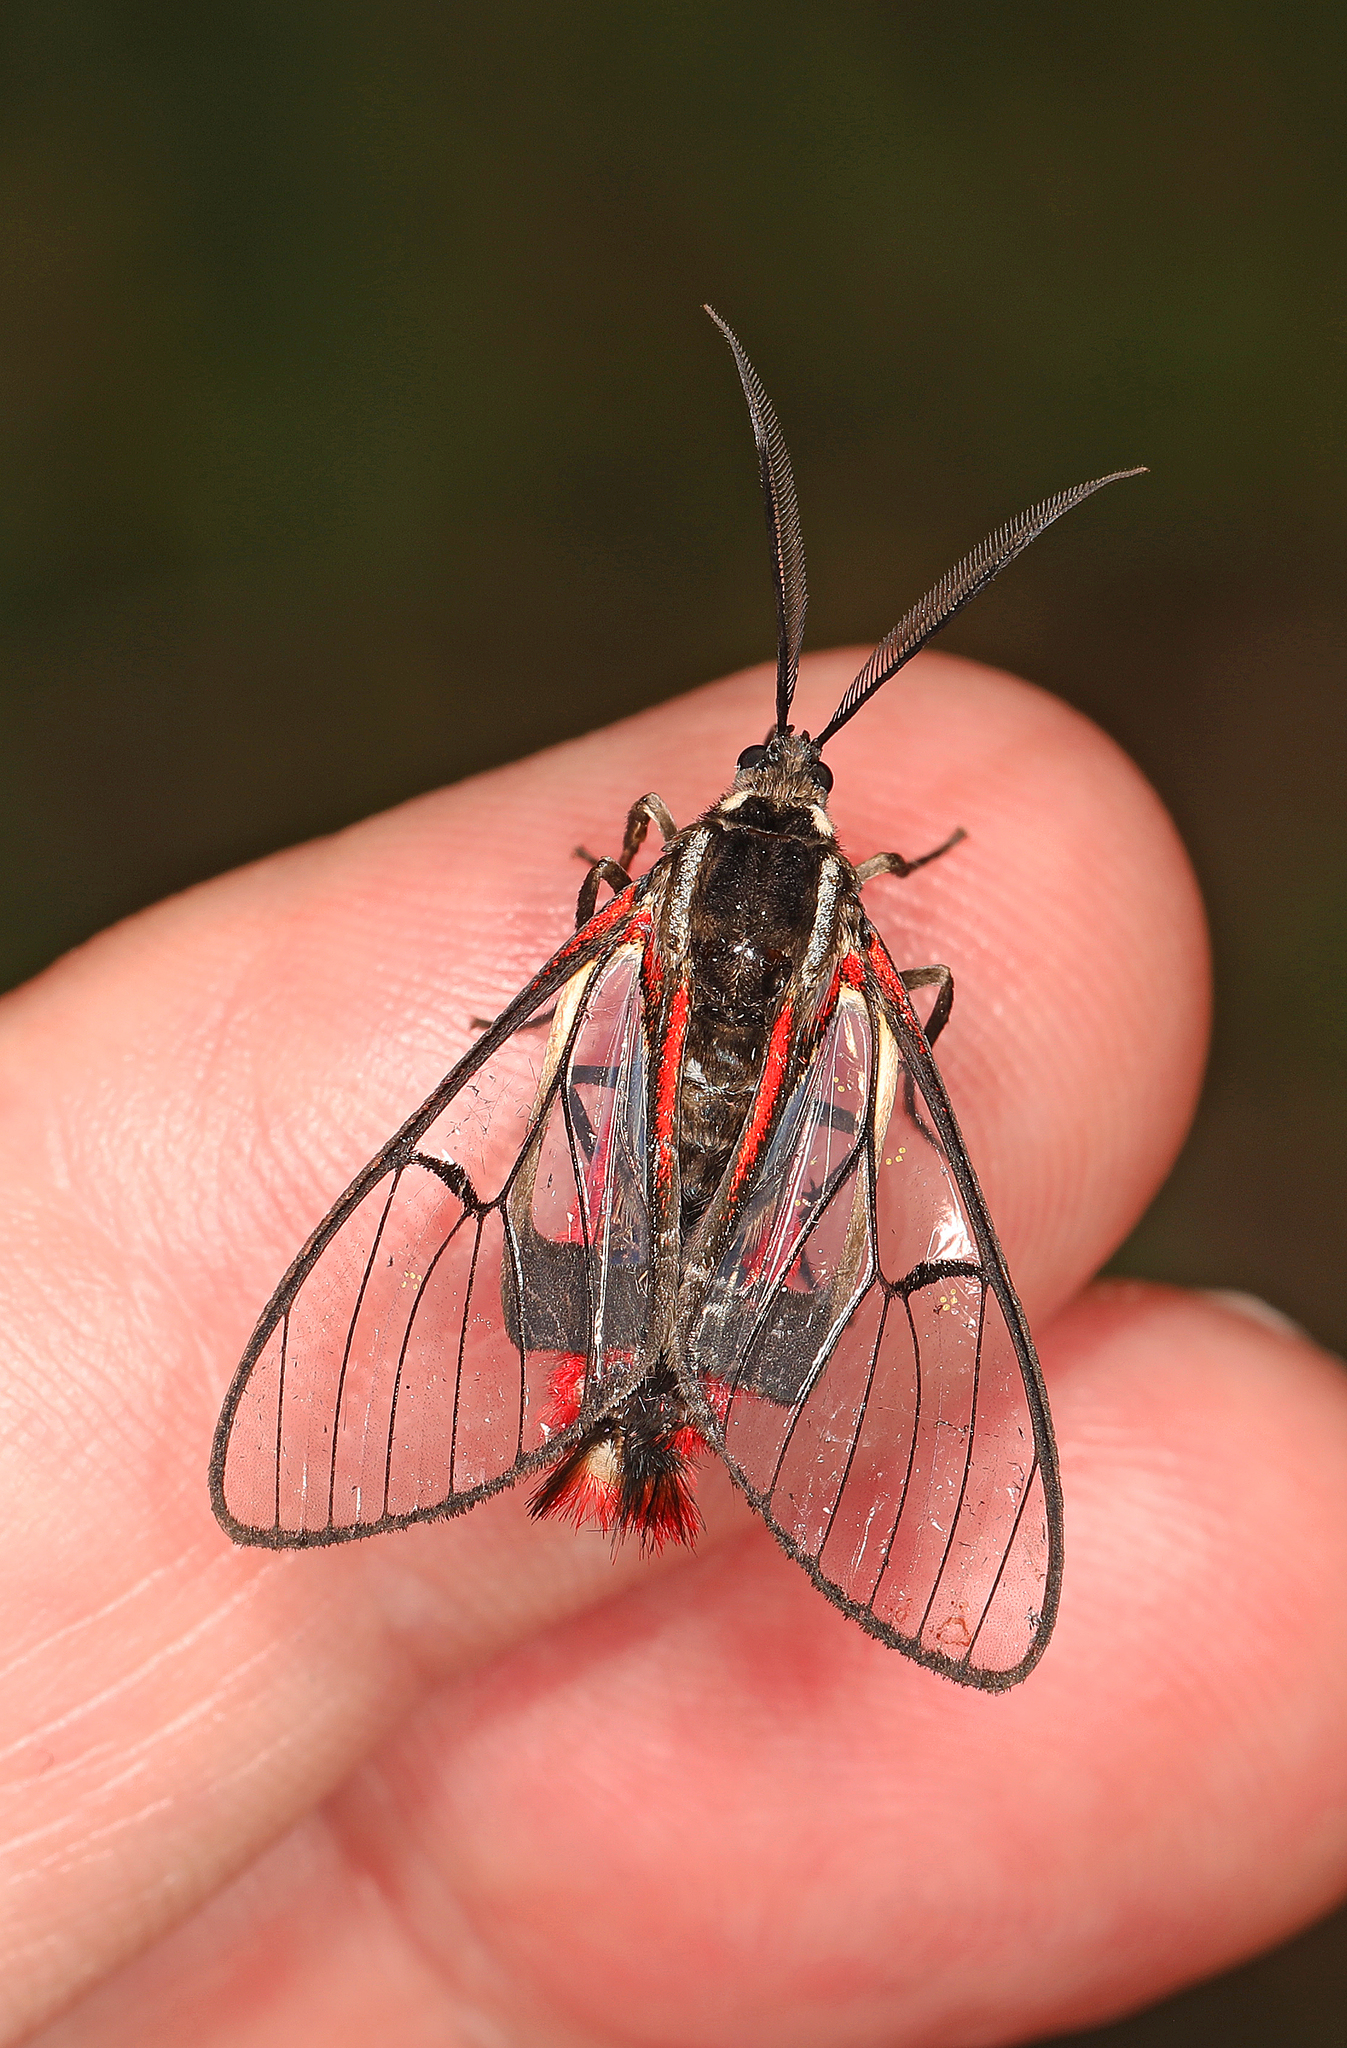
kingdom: Animalia
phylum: Arthropoda
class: Insecta
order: Lepidoptera
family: Erebidae
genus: Dinia
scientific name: Dinia mena
